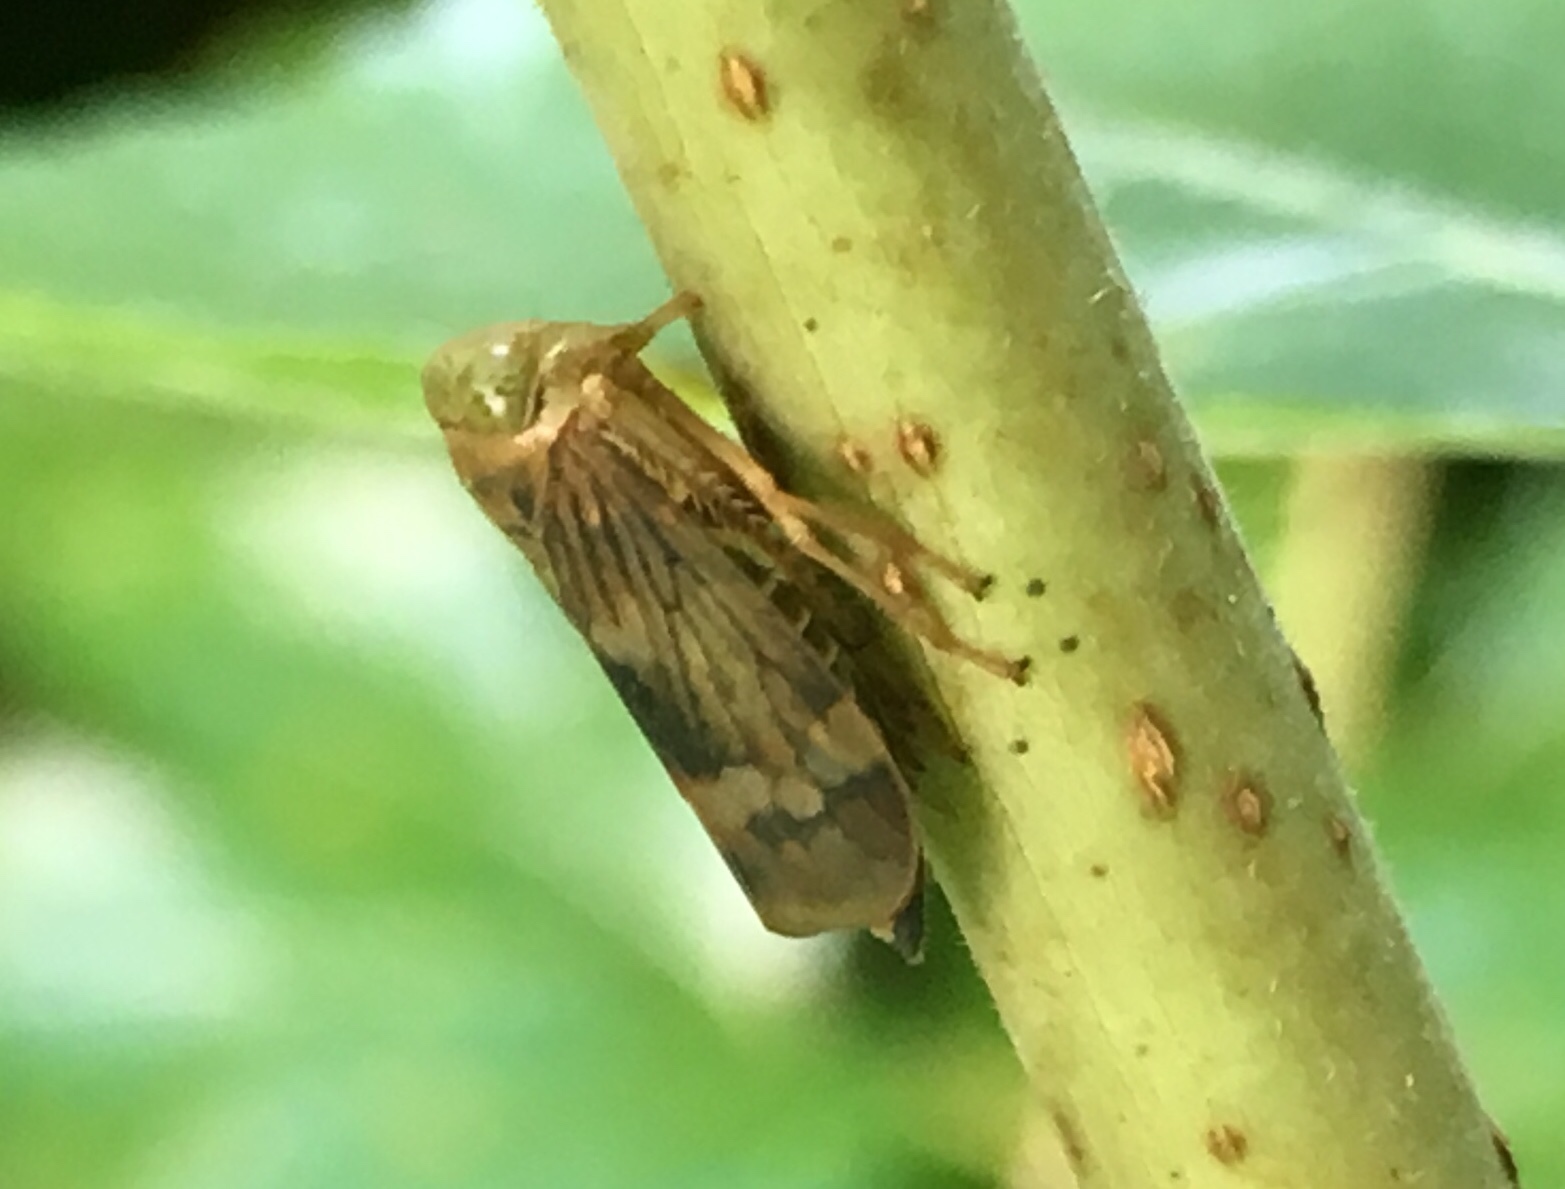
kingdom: Animalia
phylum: Arthropoda
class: Insecta
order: Hemiptera
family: Cicadellidae
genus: Jikradia
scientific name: Jikradia olitoria
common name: Coppery leafhopper
